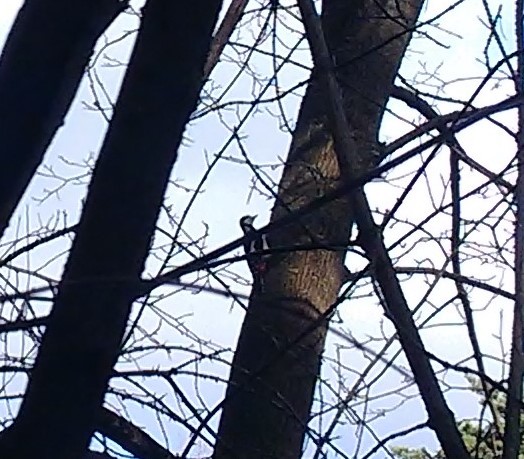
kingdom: Animalia
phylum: Chordata
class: Aves
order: Piciformes
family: Picidae
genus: Dendrocopos
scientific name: Dendrocopos major
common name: Great spotted woodpecker
